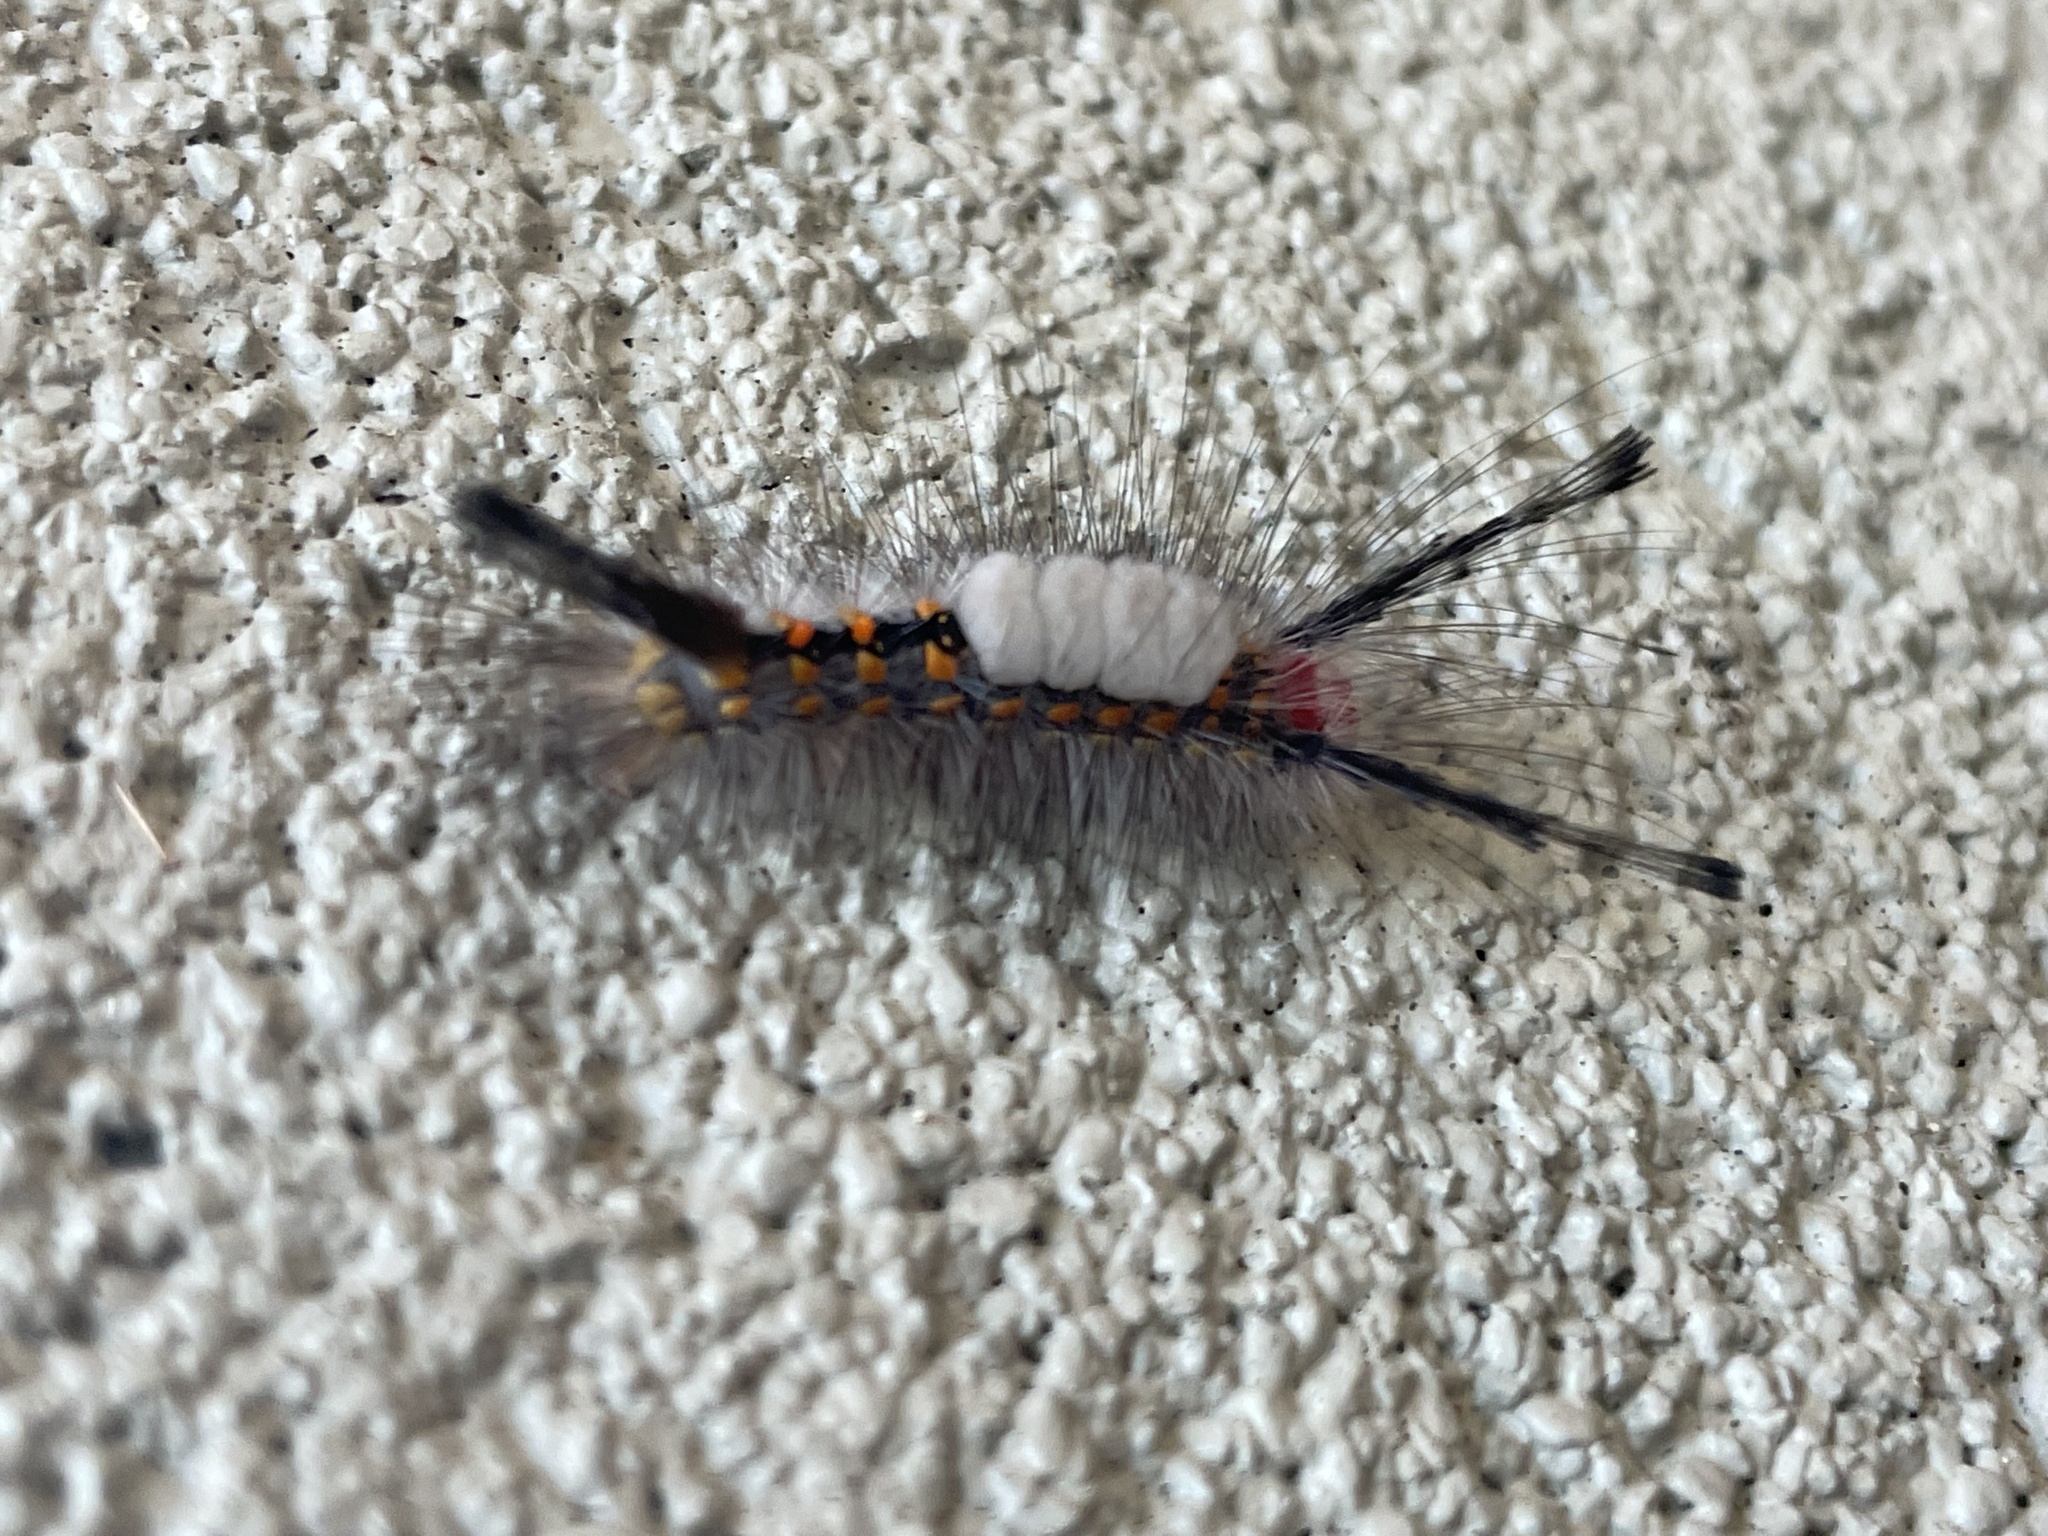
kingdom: Animalia
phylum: Arthropoda
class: Insecta
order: Lepidoptera
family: Erebidae
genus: Orgyia
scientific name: Orgyia detrita
